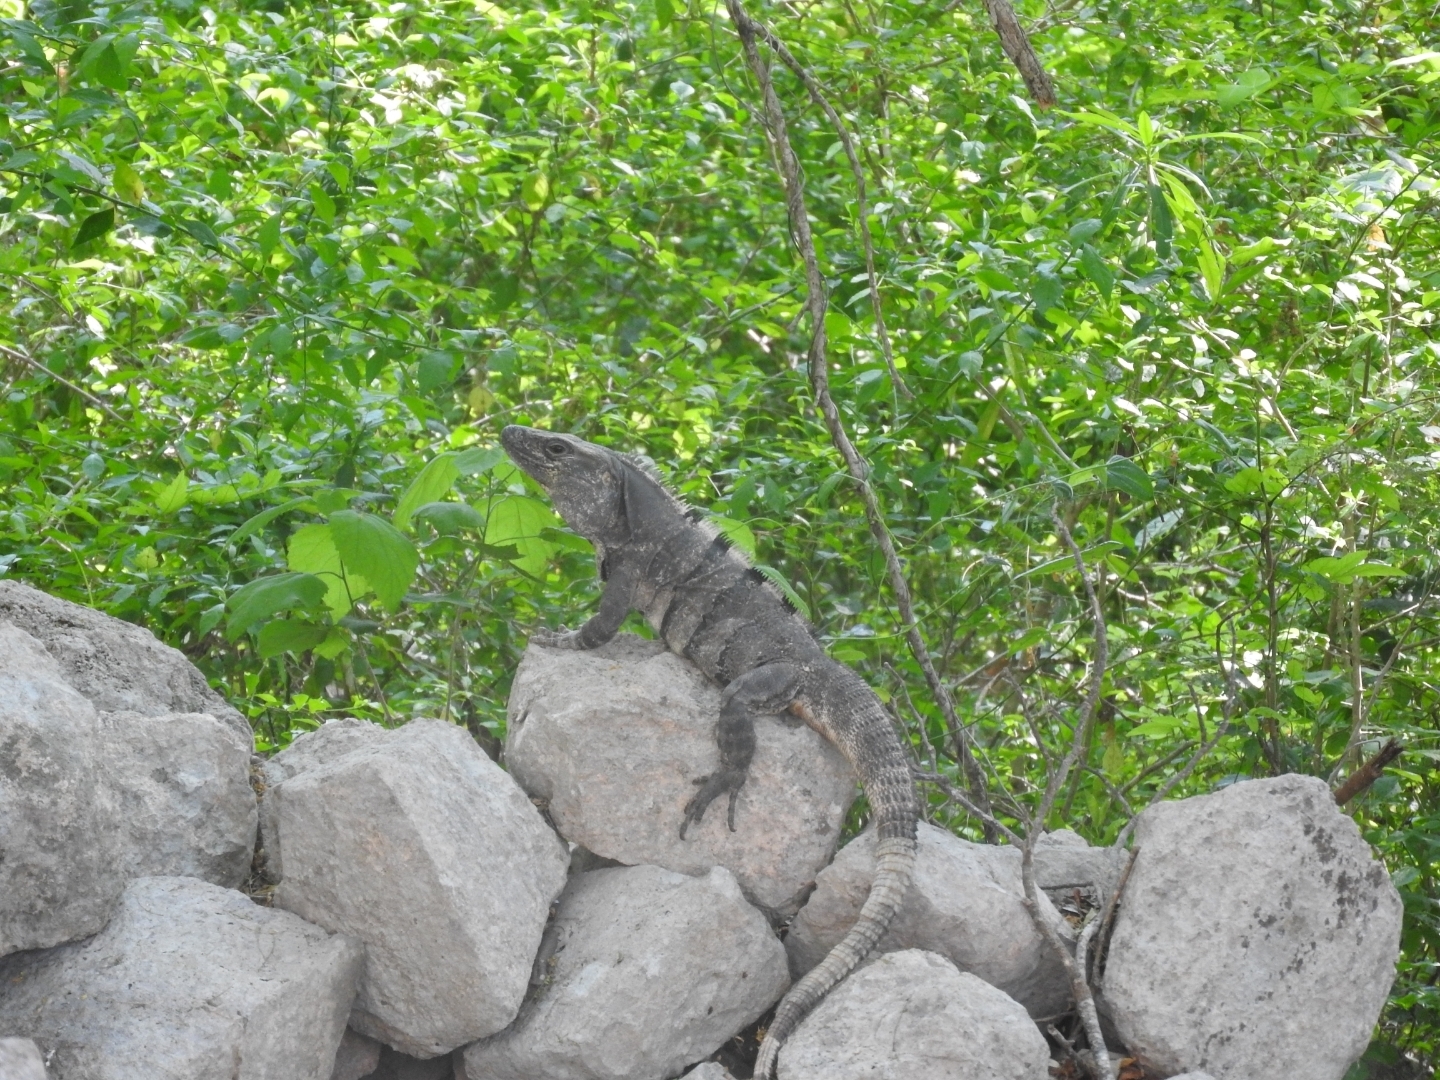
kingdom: Animalia
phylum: Chordata
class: Squamata
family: Iguanidae
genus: Ctenosaura
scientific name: Ctenosaura similis
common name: Black spiny-tailed iguana
